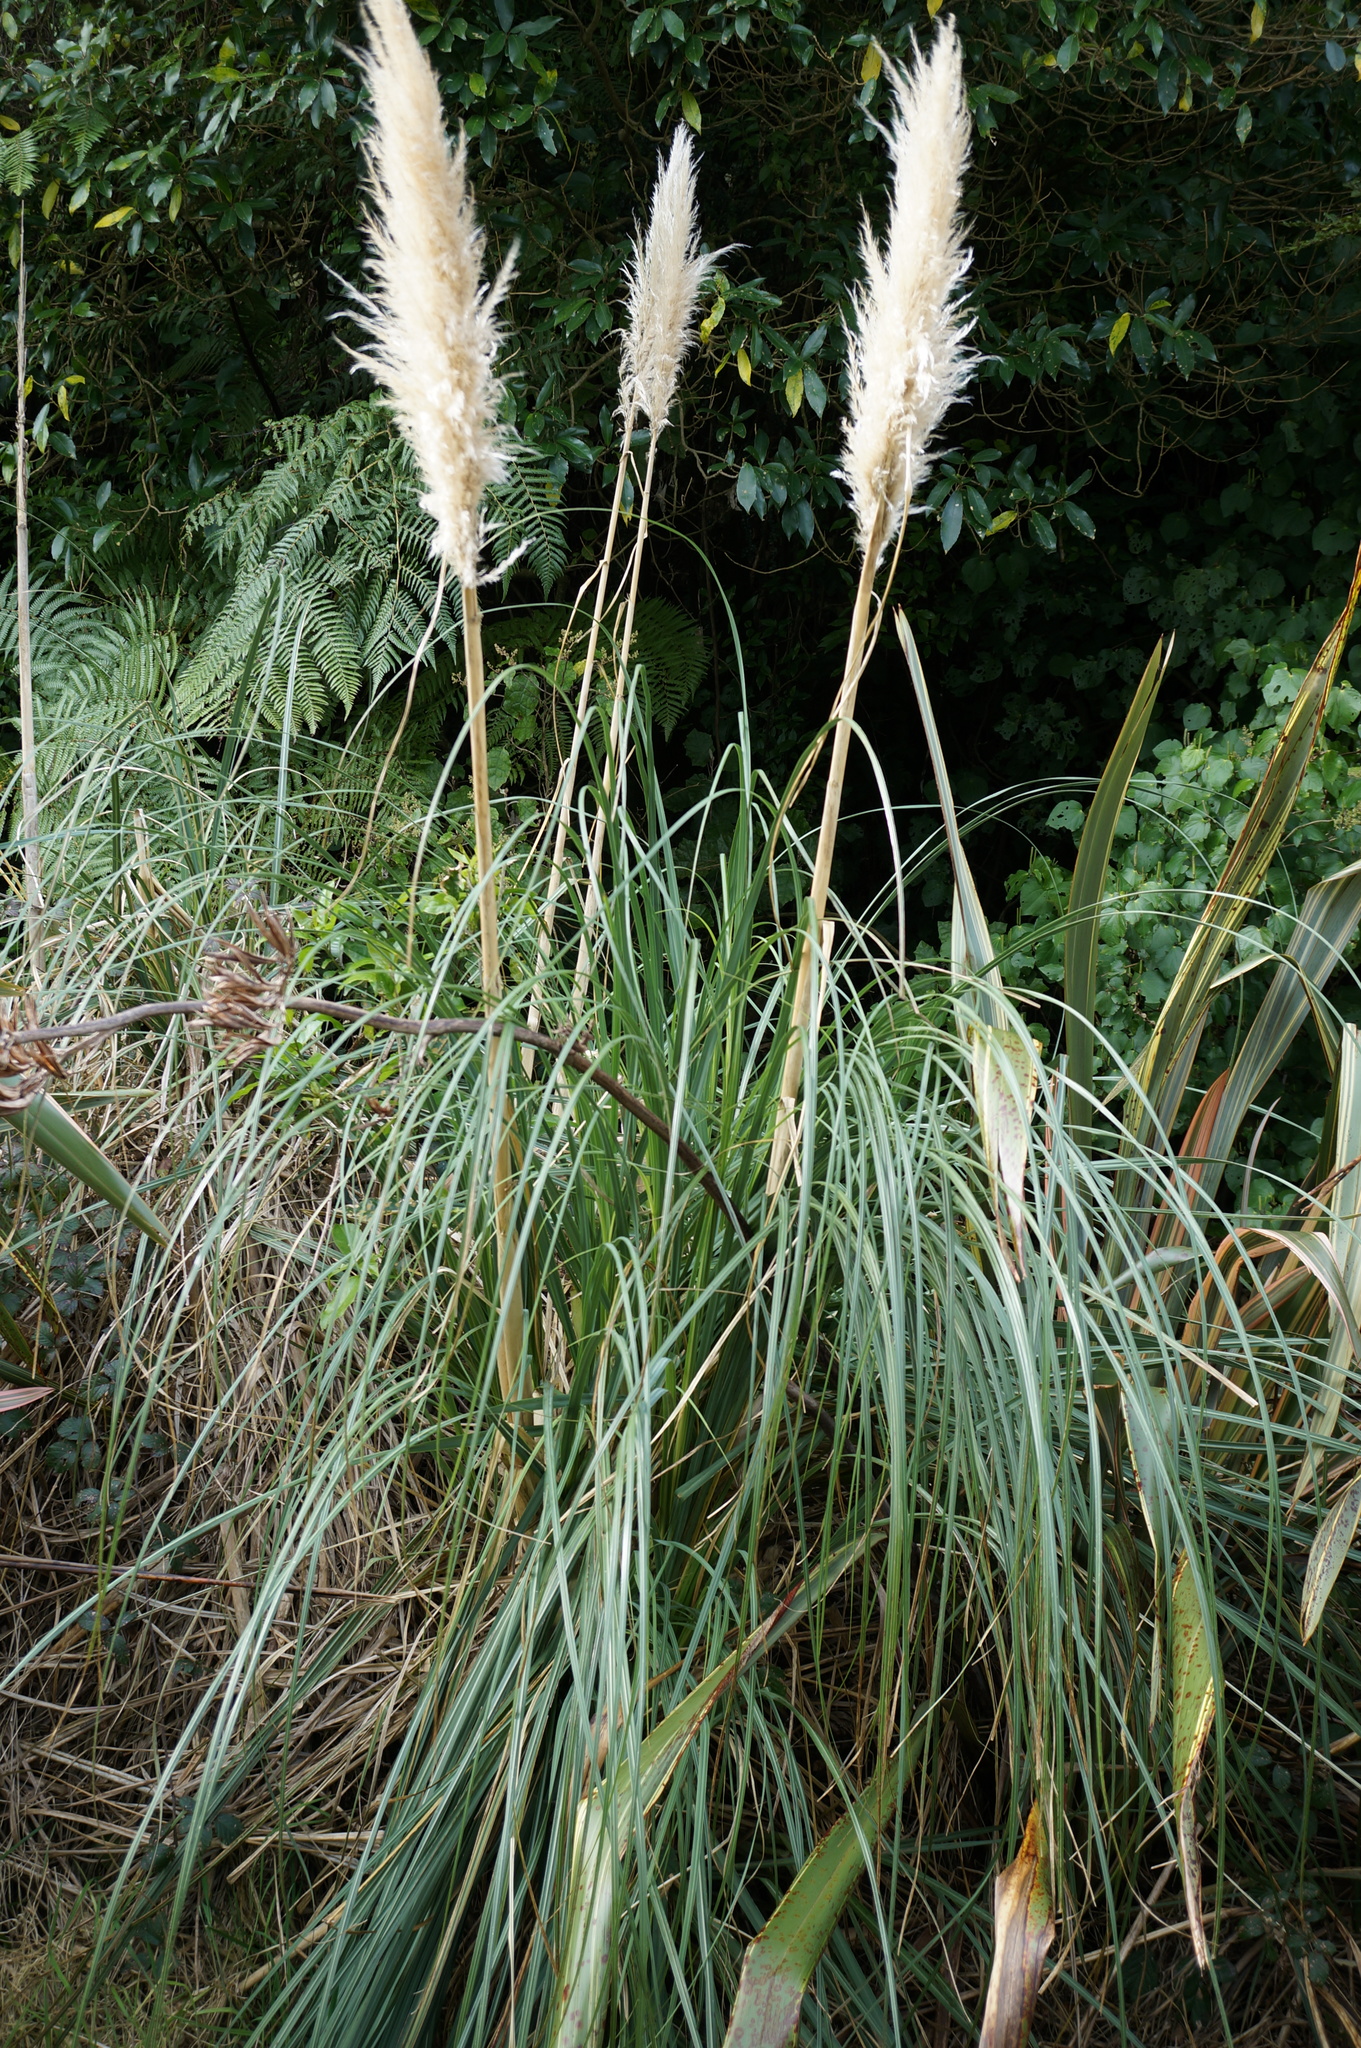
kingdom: Plantae
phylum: Tracheophyta
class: Liliopsida
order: Poales
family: Poaceae
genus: Cortaderia
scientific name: Cortaderia selloana
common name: Uruguayan pampas grass
